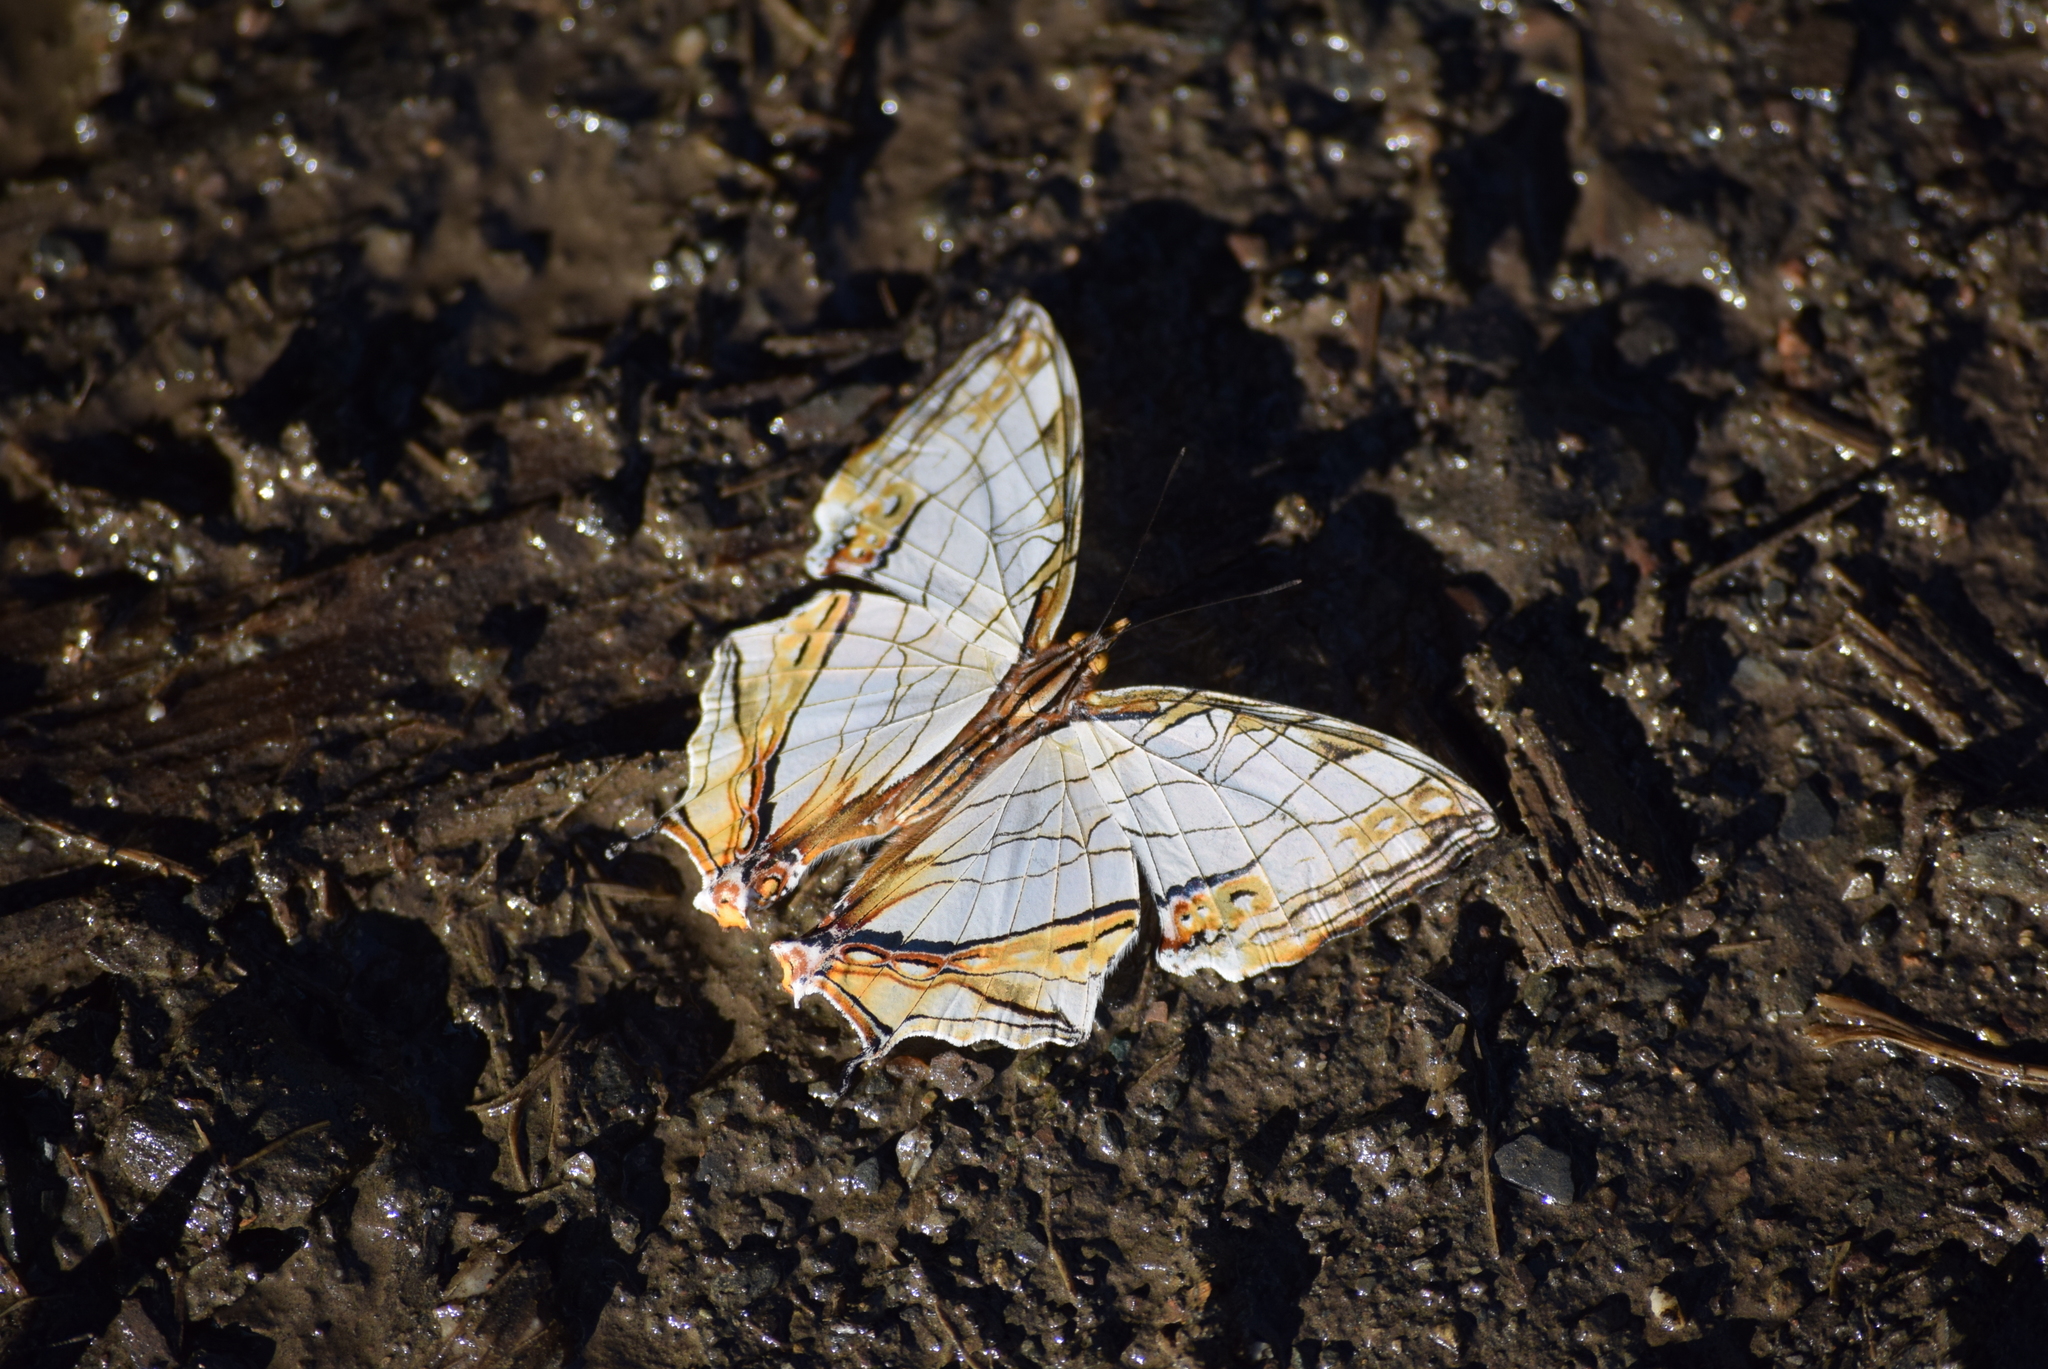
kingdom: Animalia
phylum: Arthropoda
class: Insecta
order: Lepidoptera
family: Nymphalidae
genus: Cyrestis
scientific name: Cyrestis thyodamas
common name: Common mapwing
